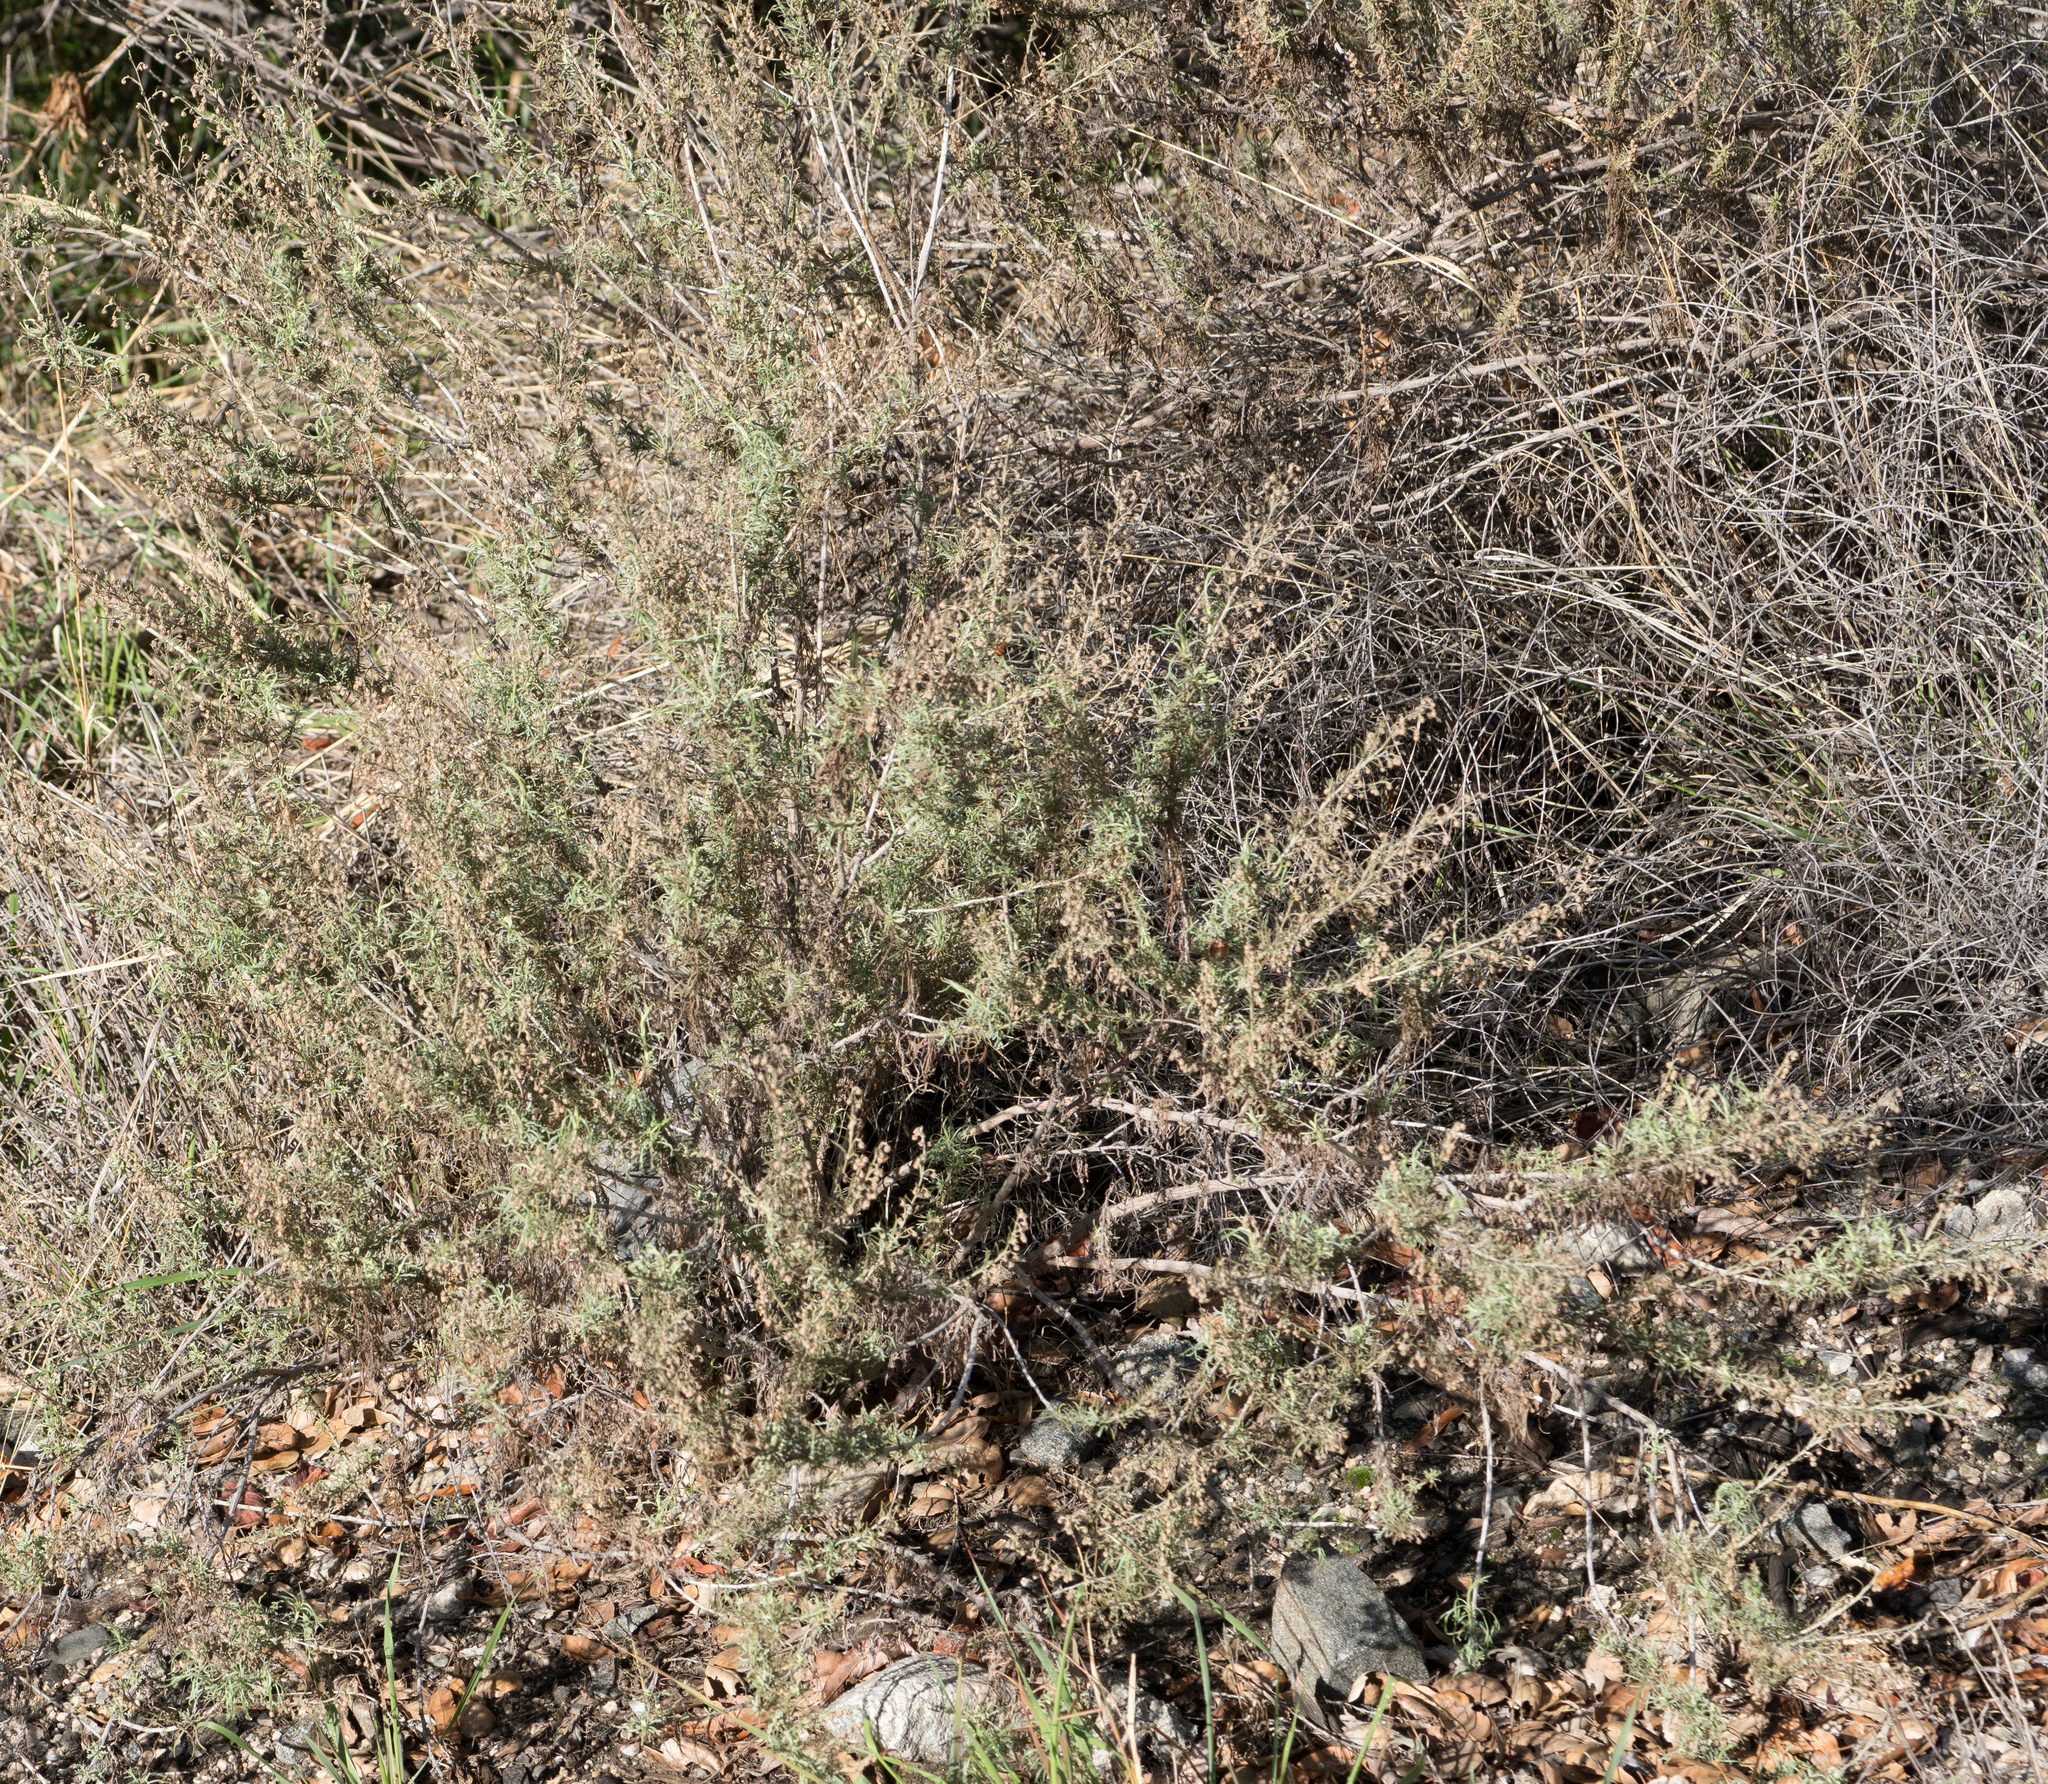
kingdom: Plantae
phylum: Tracheophyta
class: Magnoliopsida
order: Asterales
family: Asteraceae
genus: Artemisia
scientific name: Artemisia californica
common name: California sagebrush
